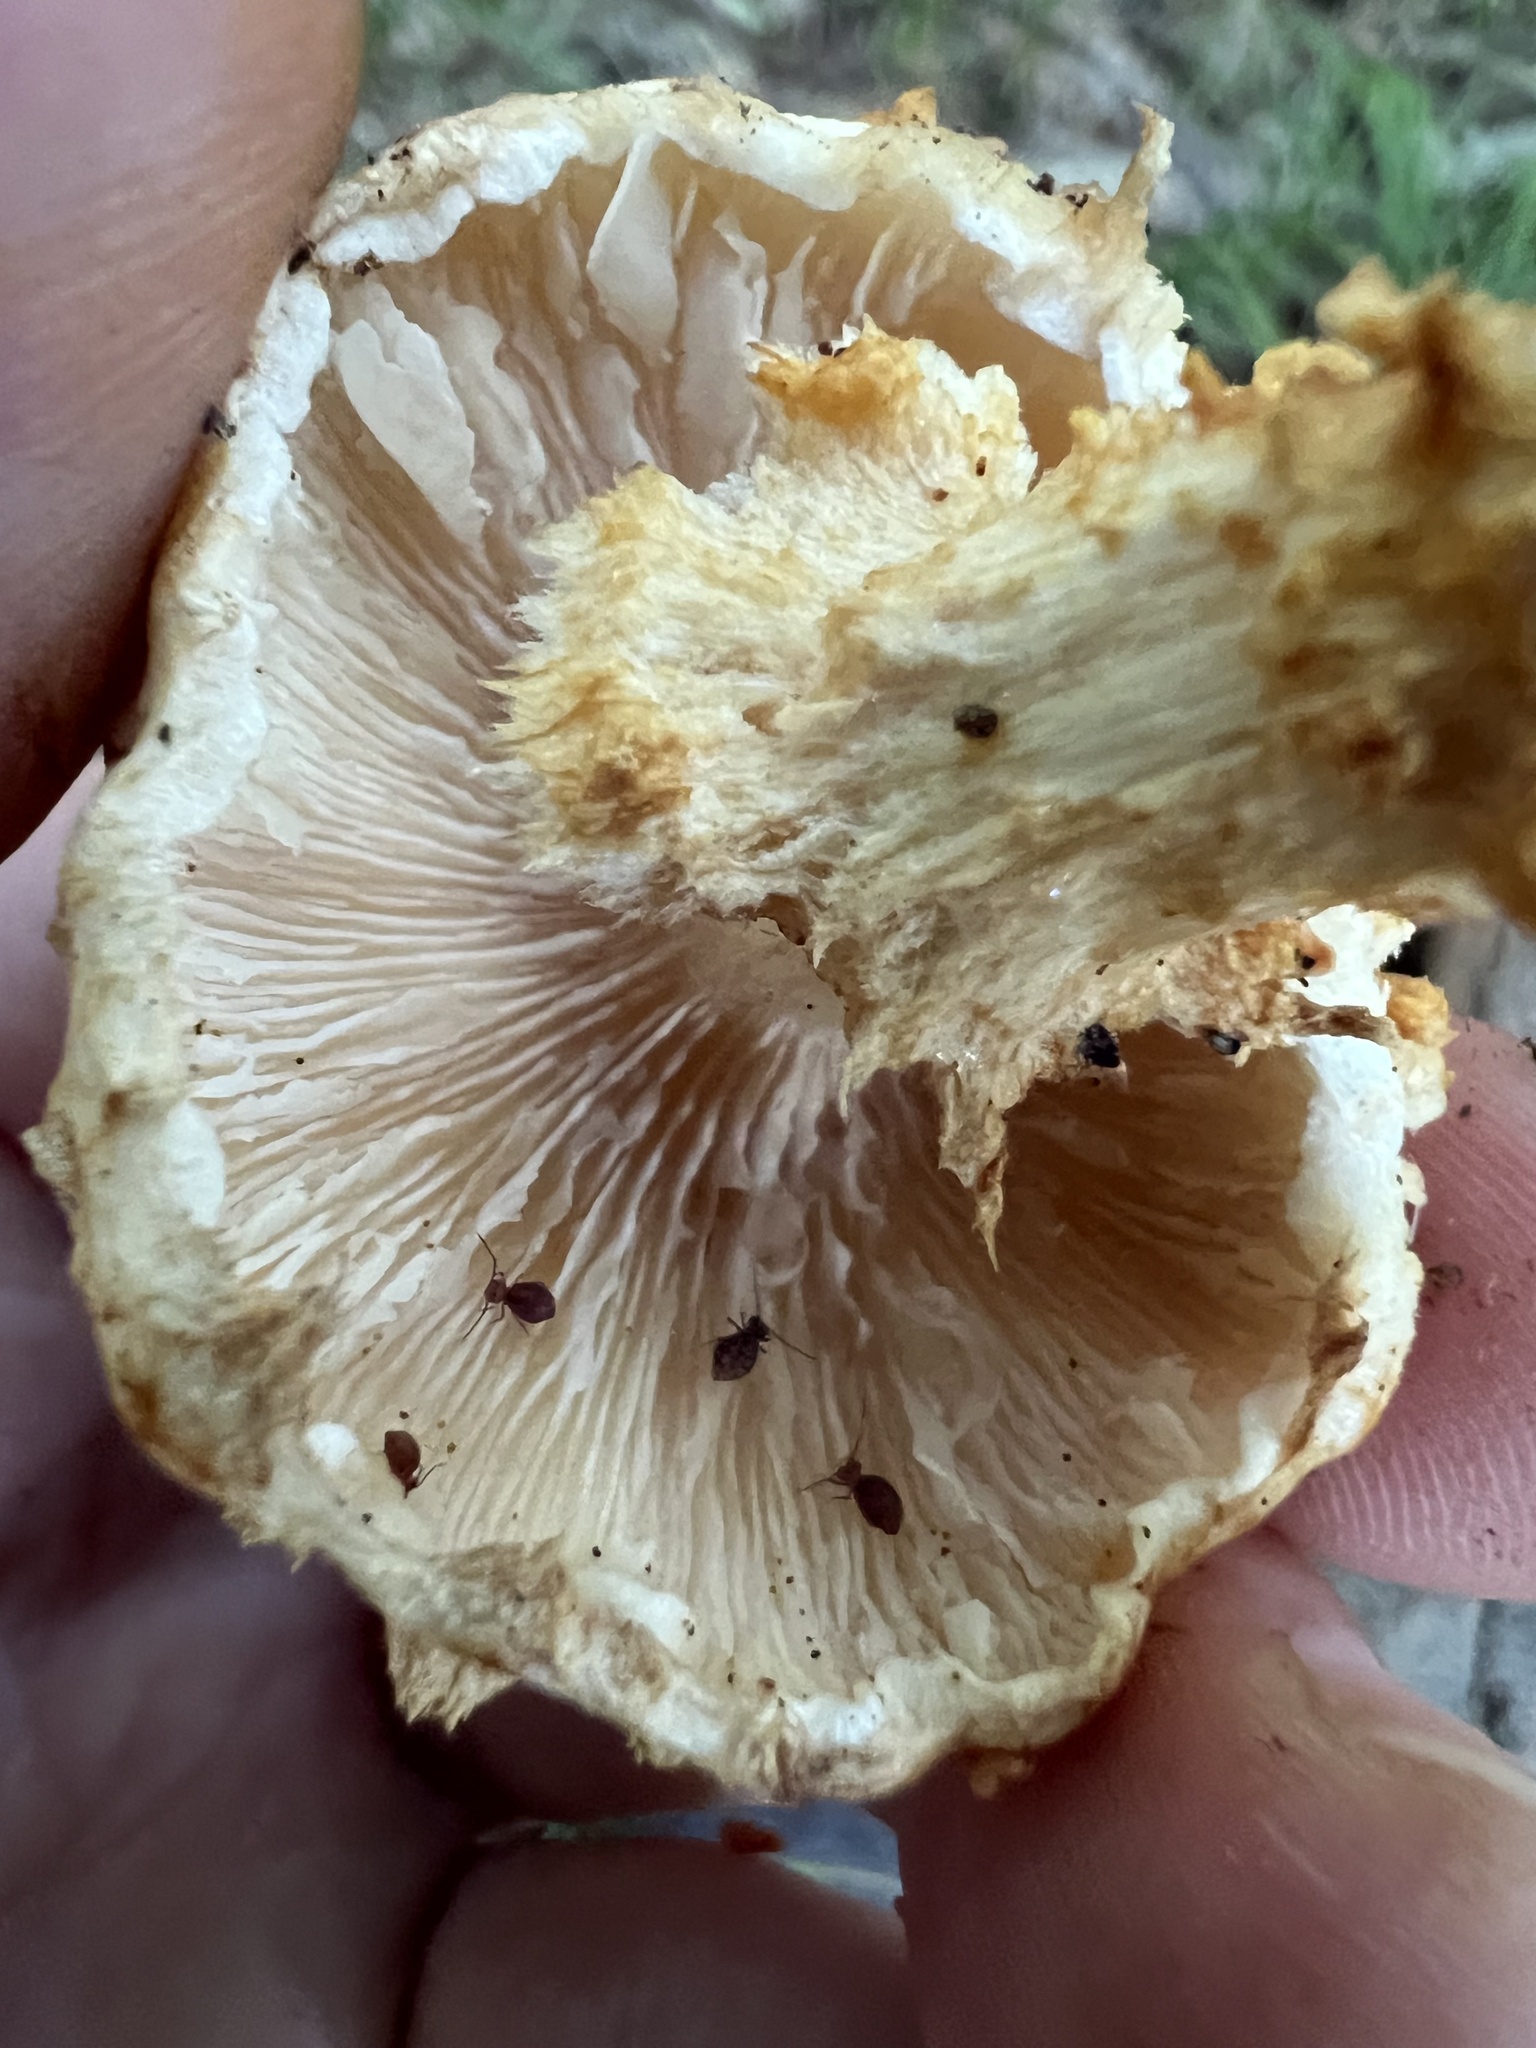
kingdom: Fungi
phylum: Basidiomycota
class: Agaricomycetes
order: Agaricales
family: Strophariaceae
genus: Pholiota
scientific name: Pholiota squarrosoides
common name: Sharp-scaly pholiota
